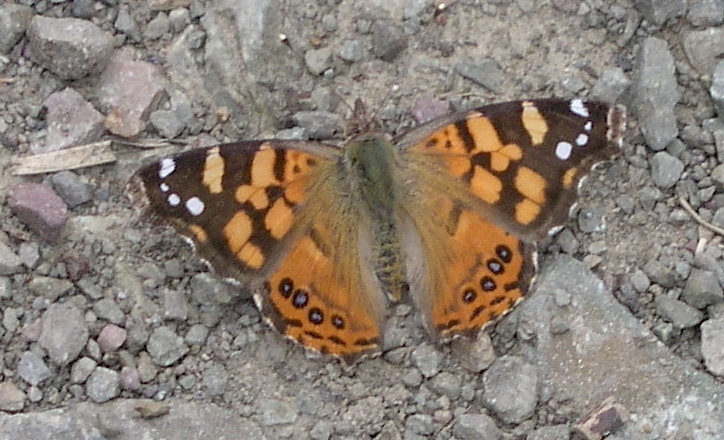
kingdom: Animalia
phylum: Arthropoda
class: Insecta
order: Lepidoptera
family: Nymphalidae
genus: Vanessa
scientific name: Vanessa carye
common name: Subtropical lady
